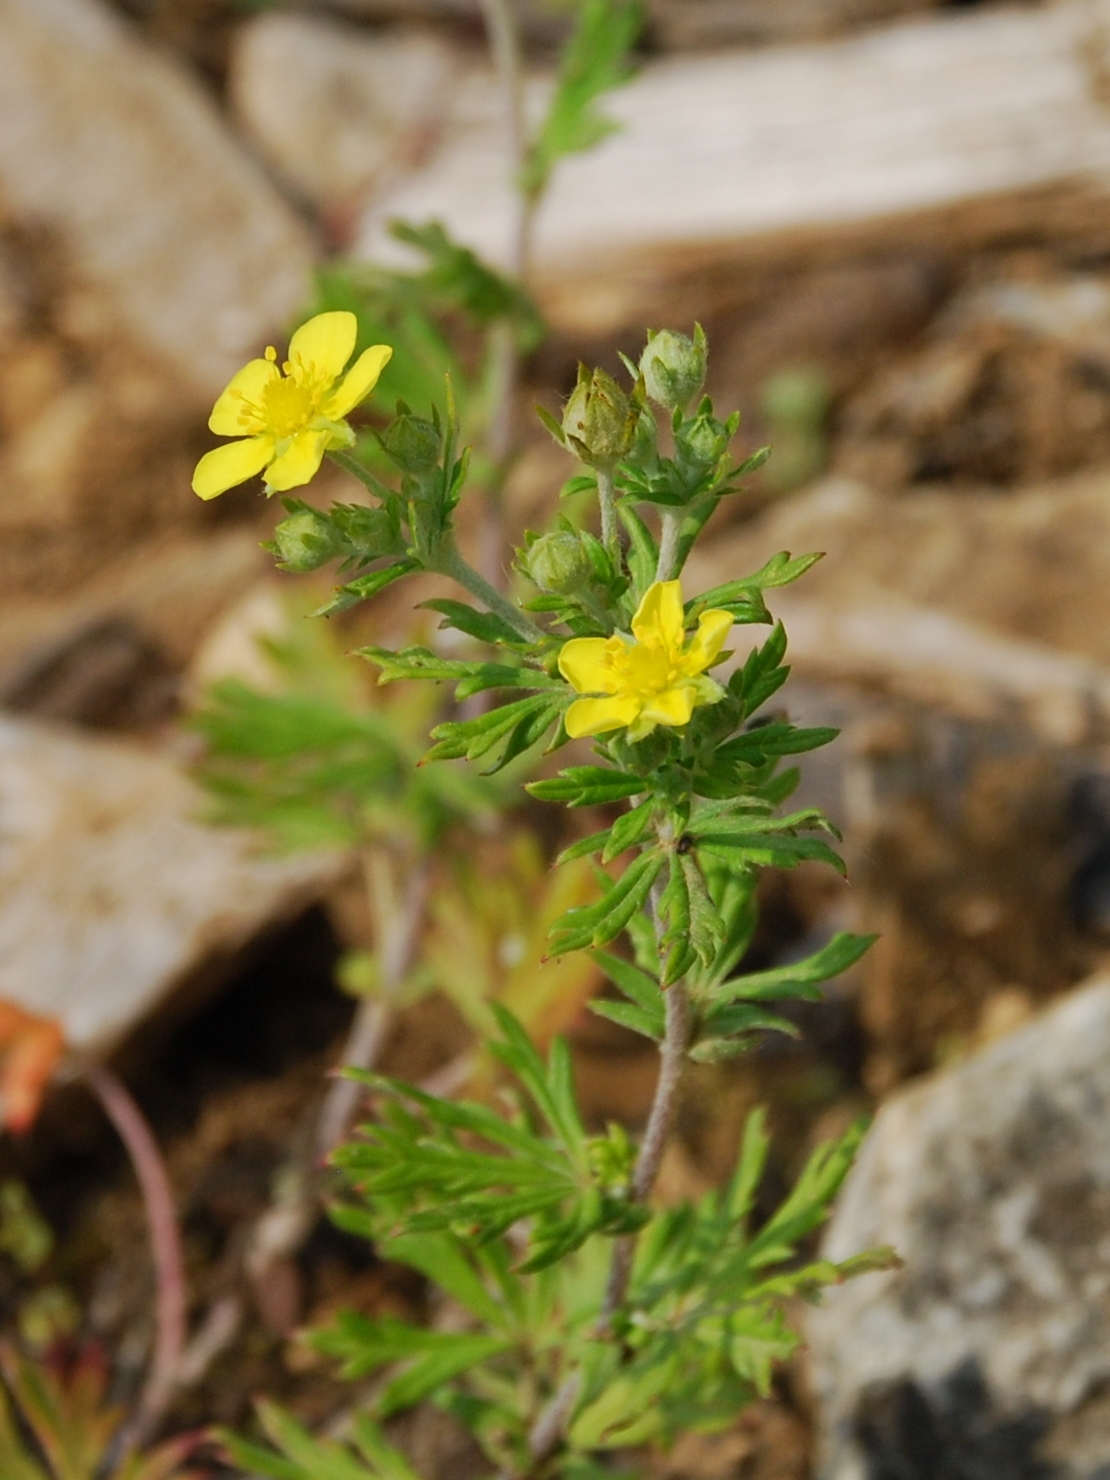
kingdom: Plantae
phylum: Tracheophyta
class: Magnoliopsida
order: Rosales
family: Rosaceae
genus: Potentilla
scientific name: Potentilla argentea
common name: Hoary cinquefoil
